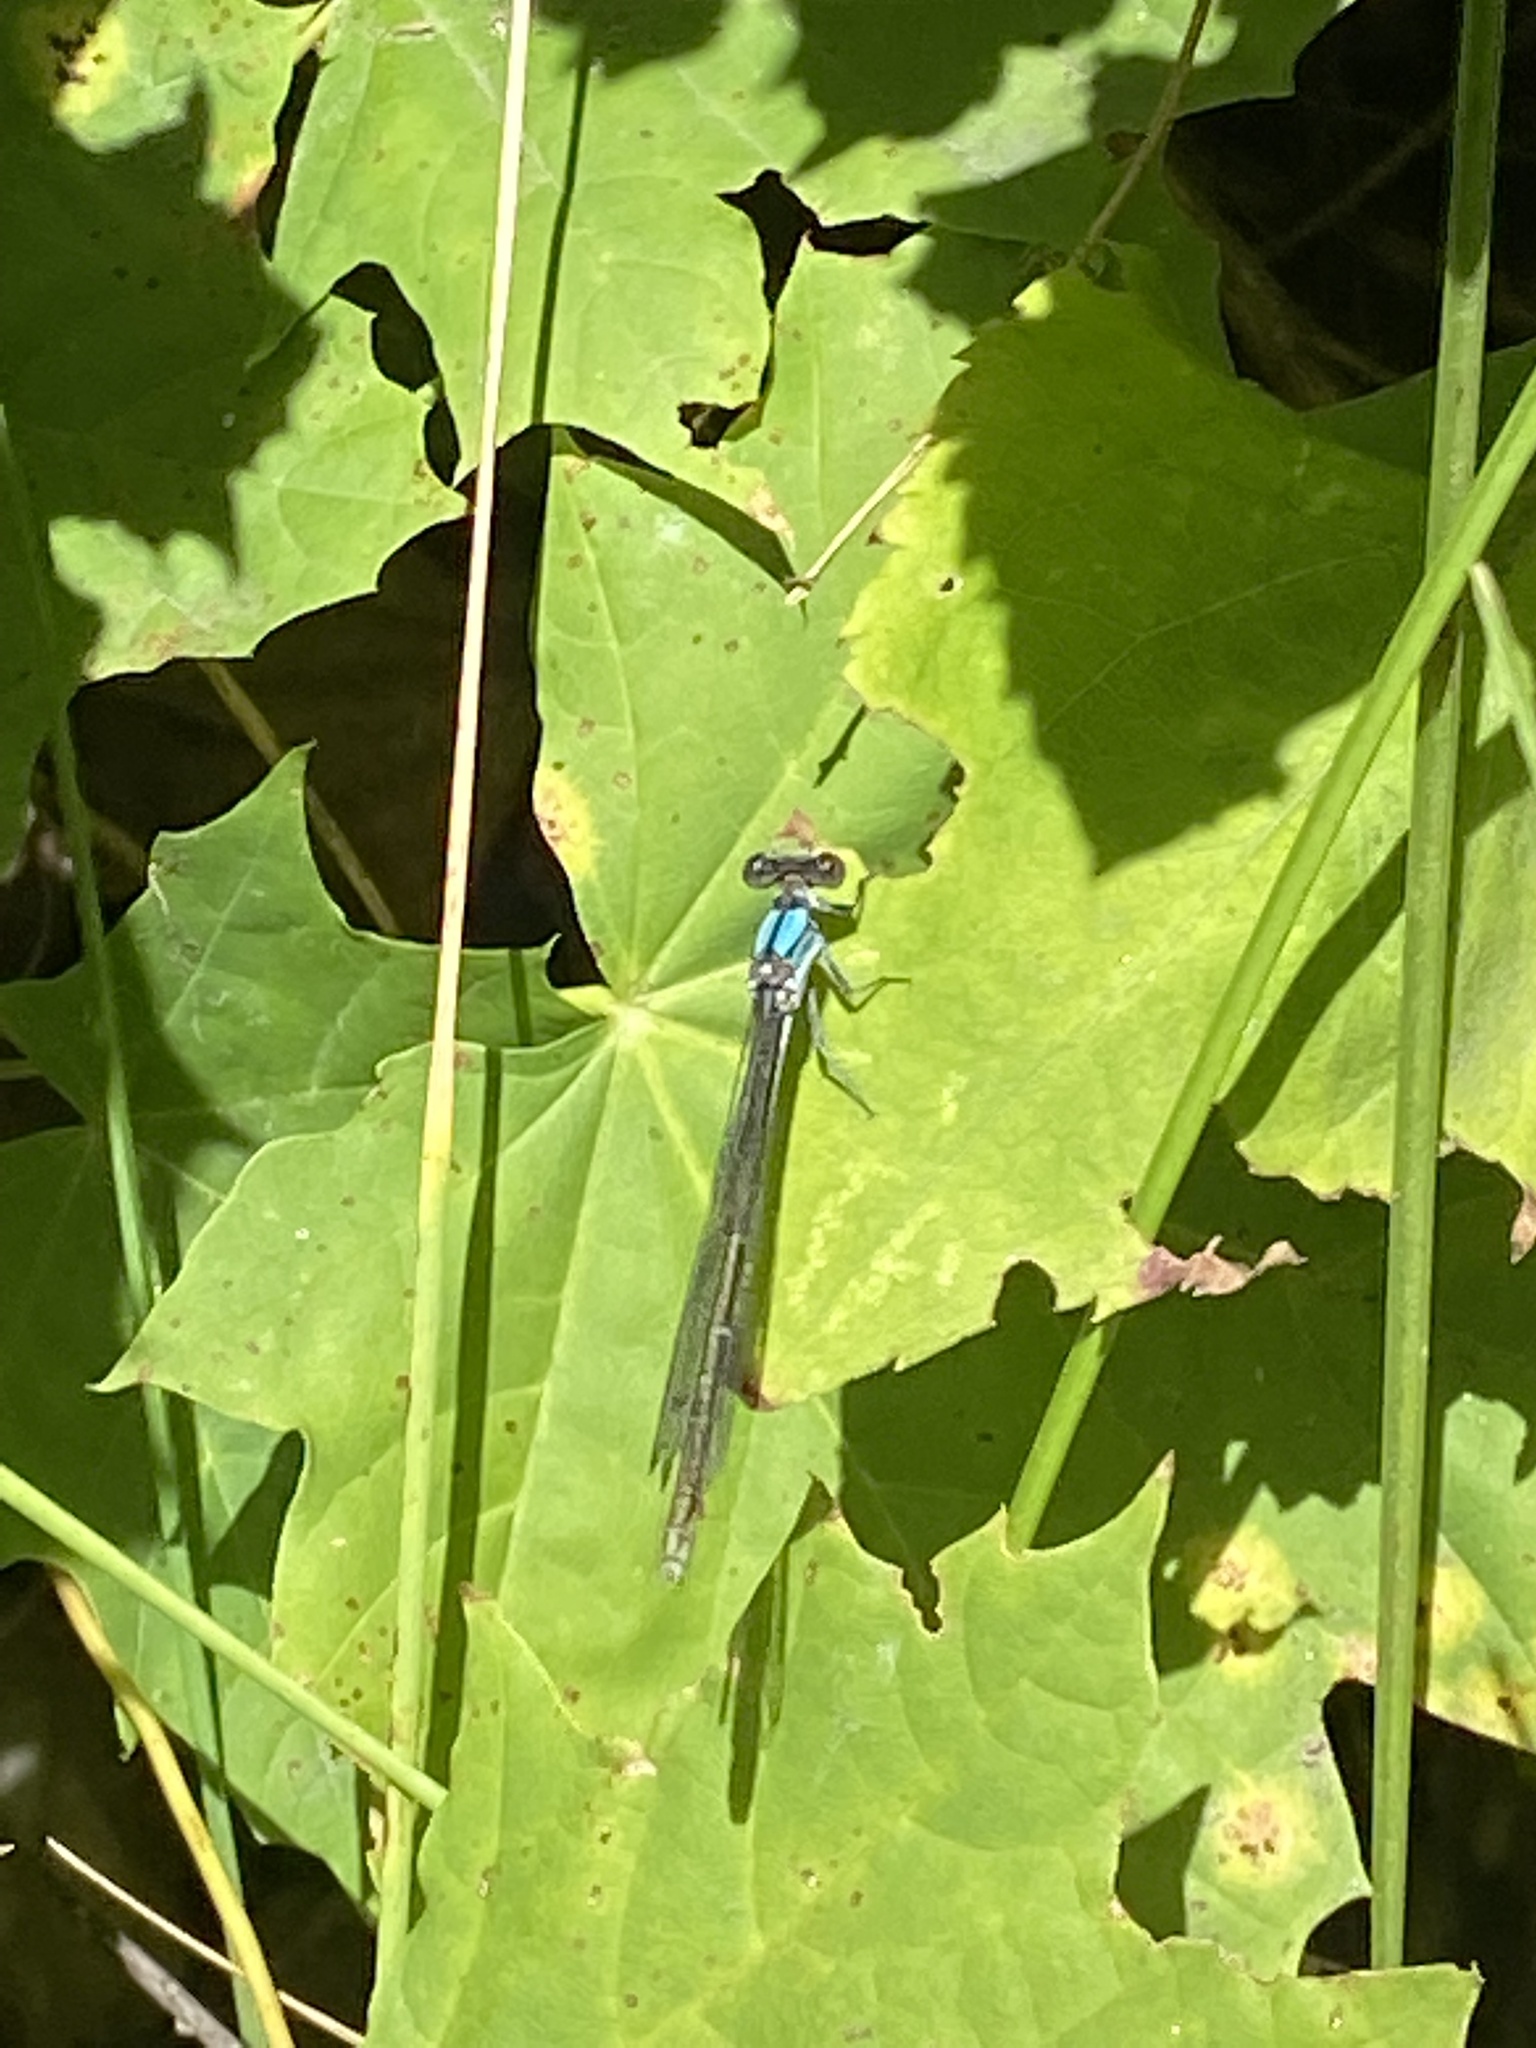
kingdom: Animalia
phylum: Arthropoda
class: Insecta
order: Odonata
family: Coenagrionidae
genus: Argia
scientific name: Argia moesta
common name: Powdered dancer
